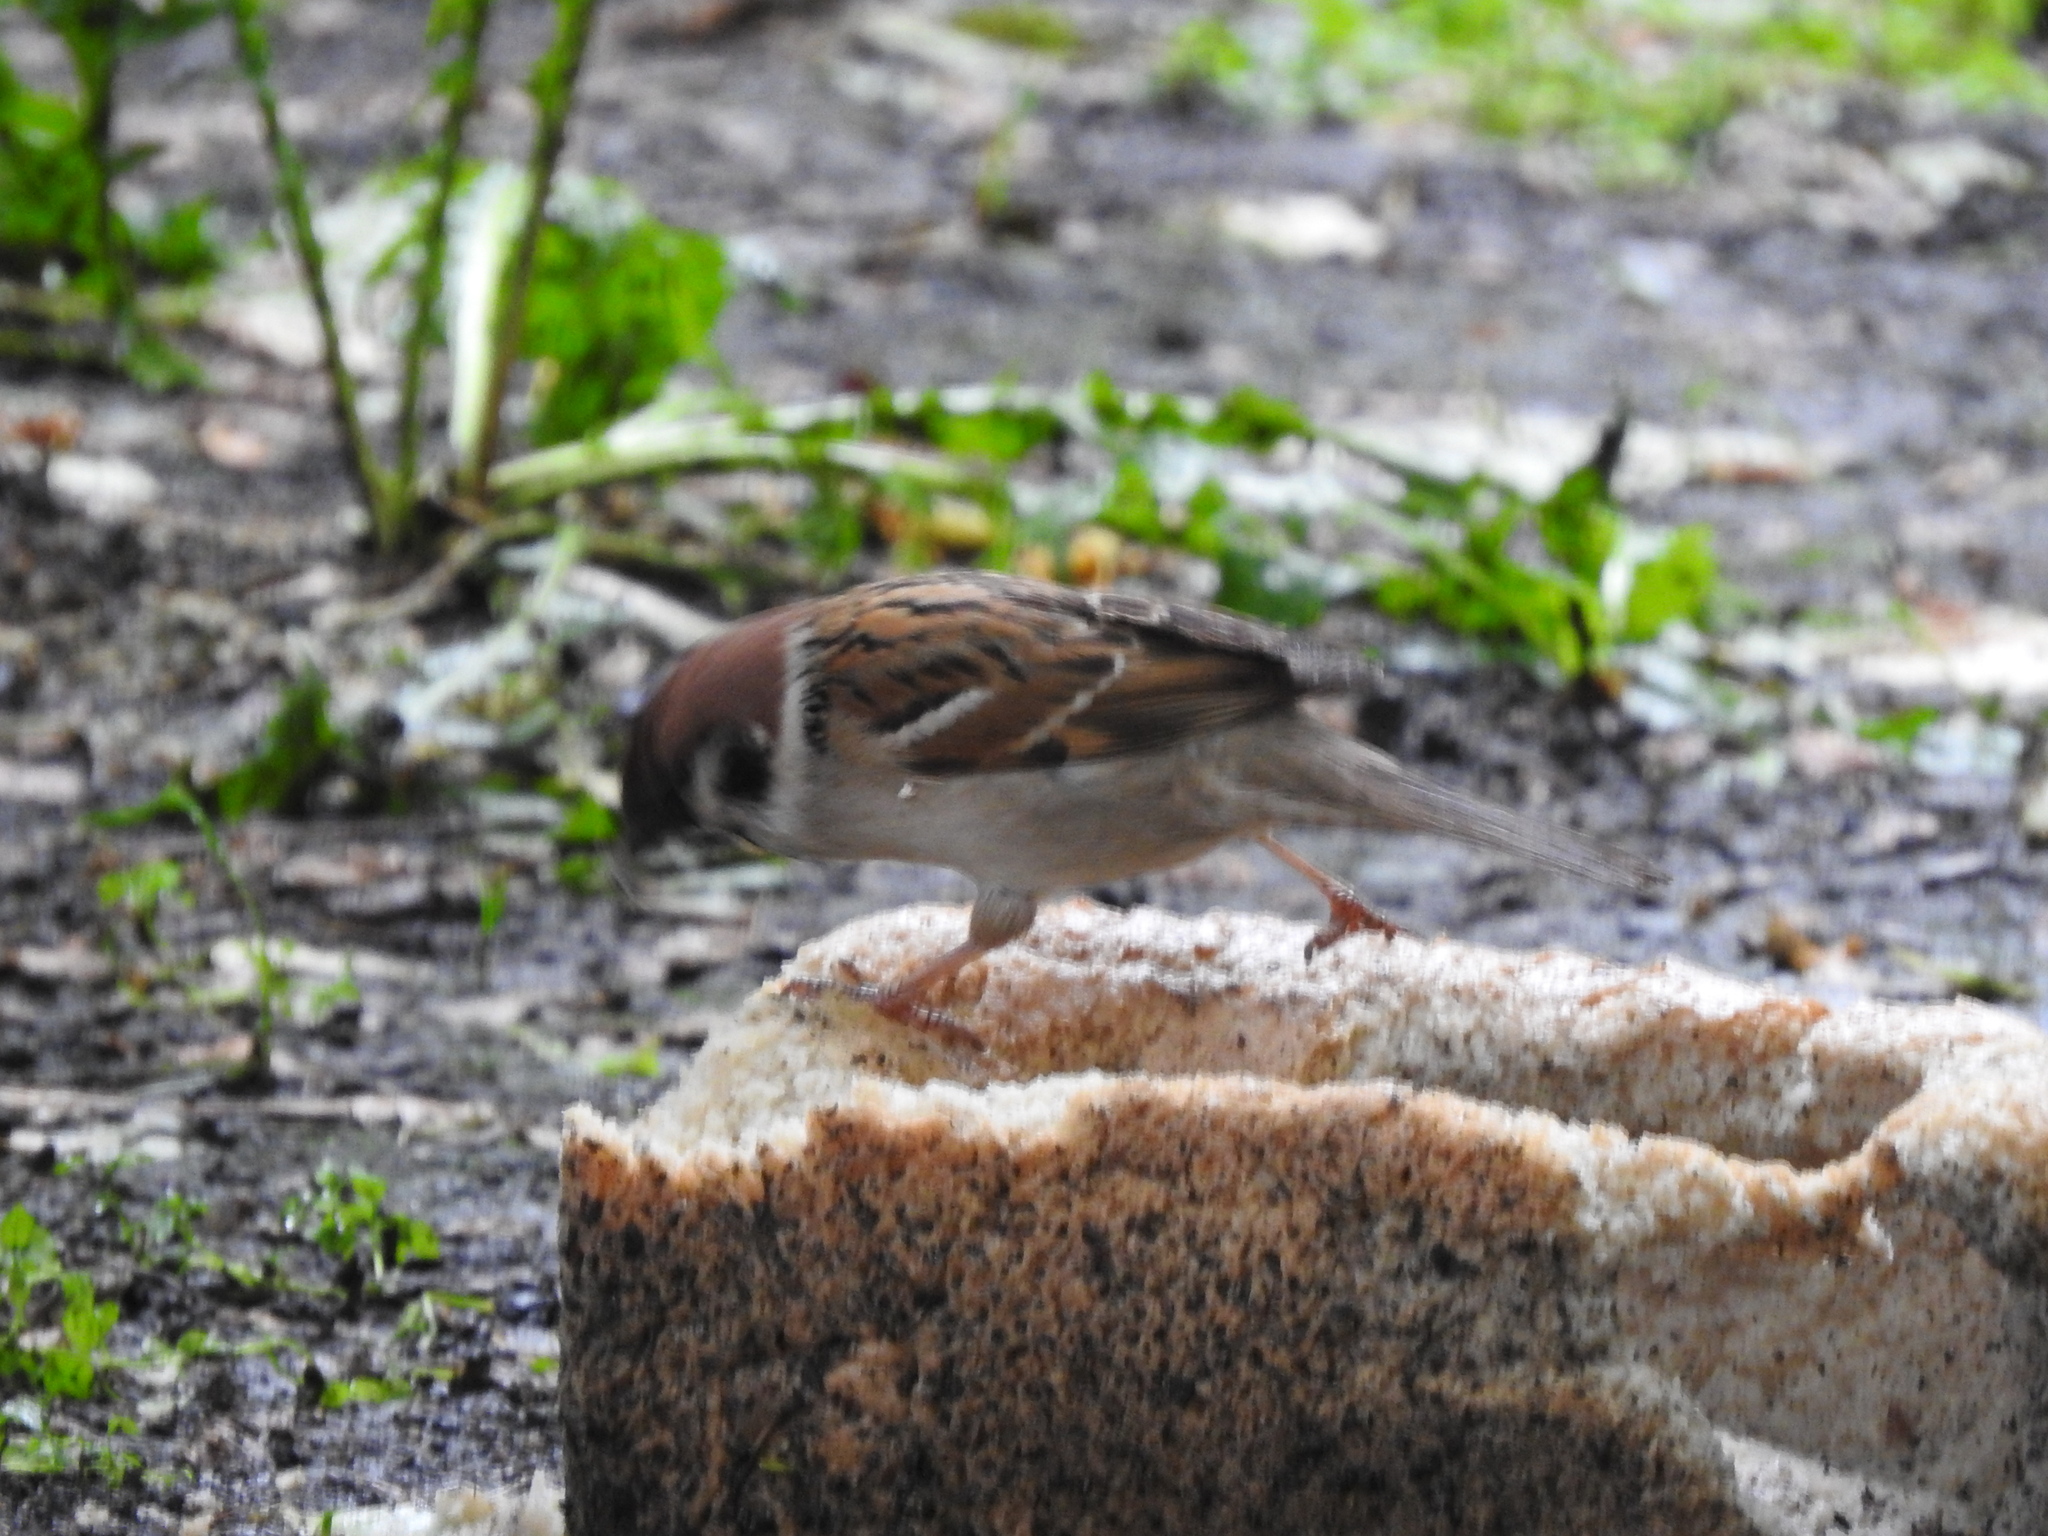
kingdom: Animalia
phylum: Chordata
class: Aves
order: Passeriformes
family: Passeridae
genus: Passer
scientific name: Passer montanus
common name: Eurasian tree sparrow
